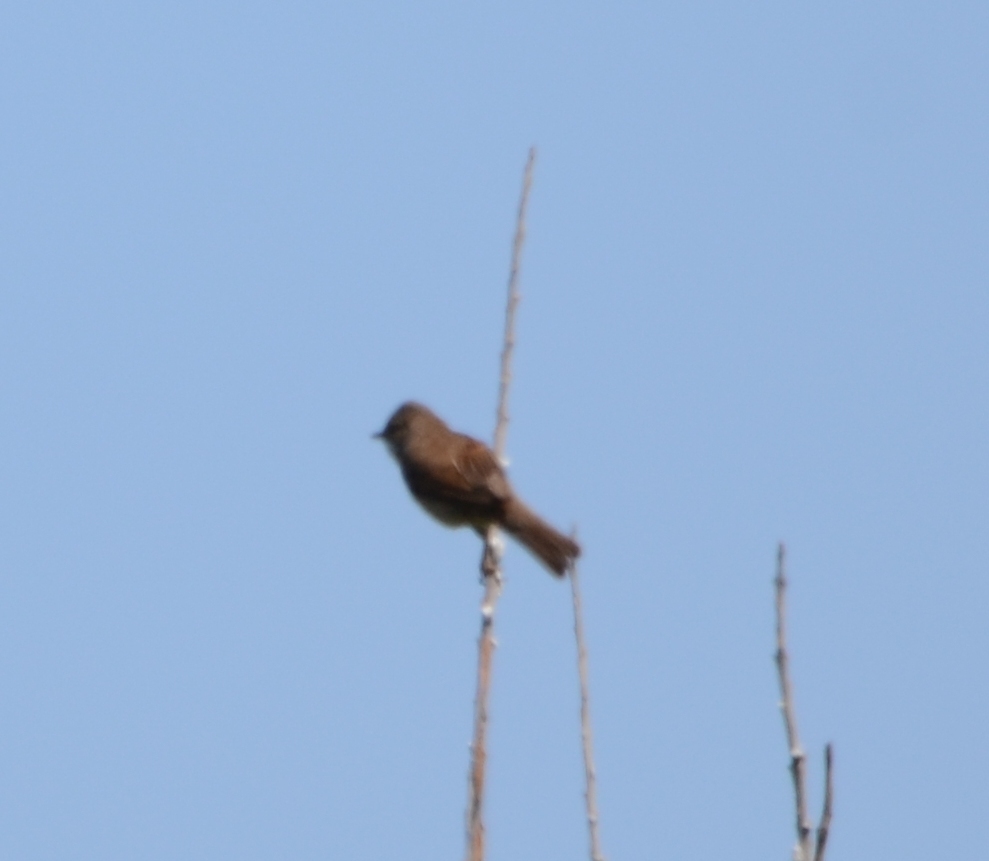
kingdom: Animalia
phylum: Chordata
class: Aves
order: Passeriformes
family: Sylviidae
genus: Sylvia
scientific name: Sylvia communis
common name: Common whitethroat
